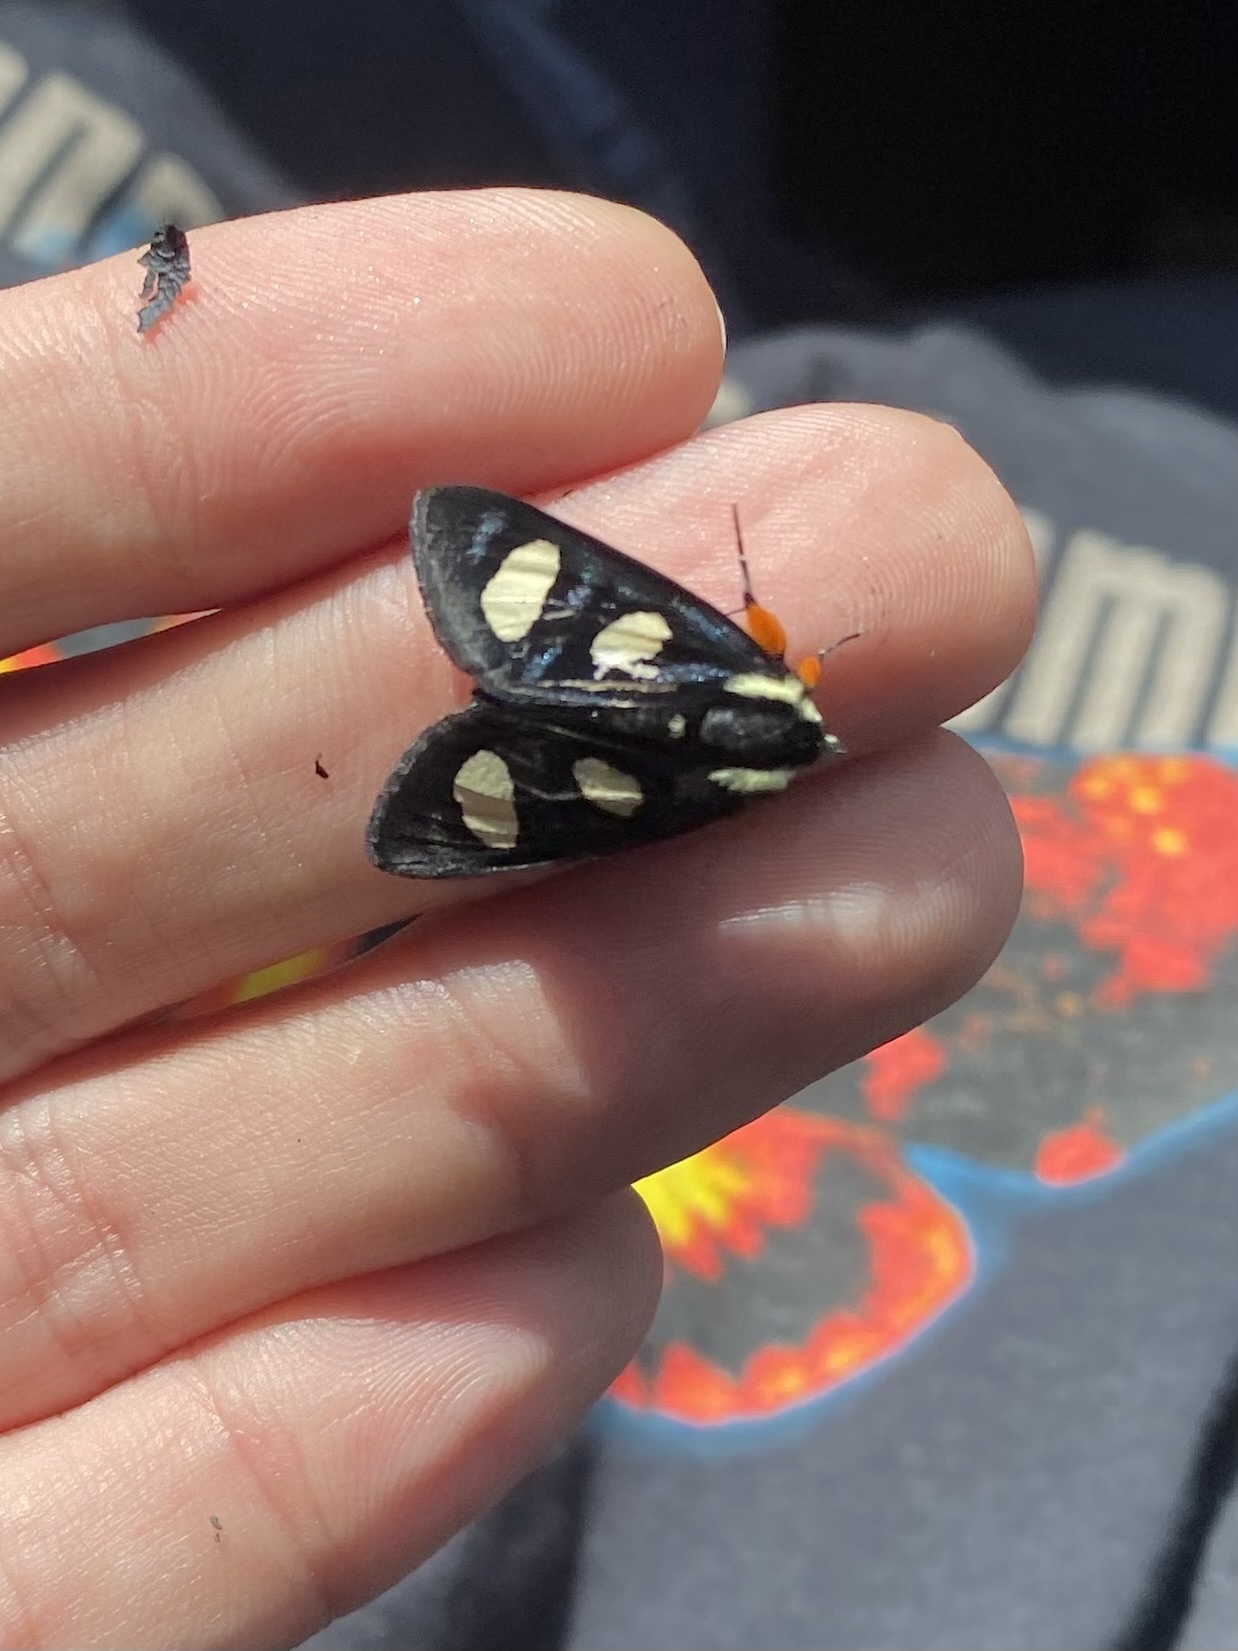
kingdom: Animalia
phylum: Arthropoda
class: Insecta
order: Lepidoptera
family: Noctuidae
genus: Alypia
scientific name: Alypia octomaculata
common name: Eight-spotted forester
